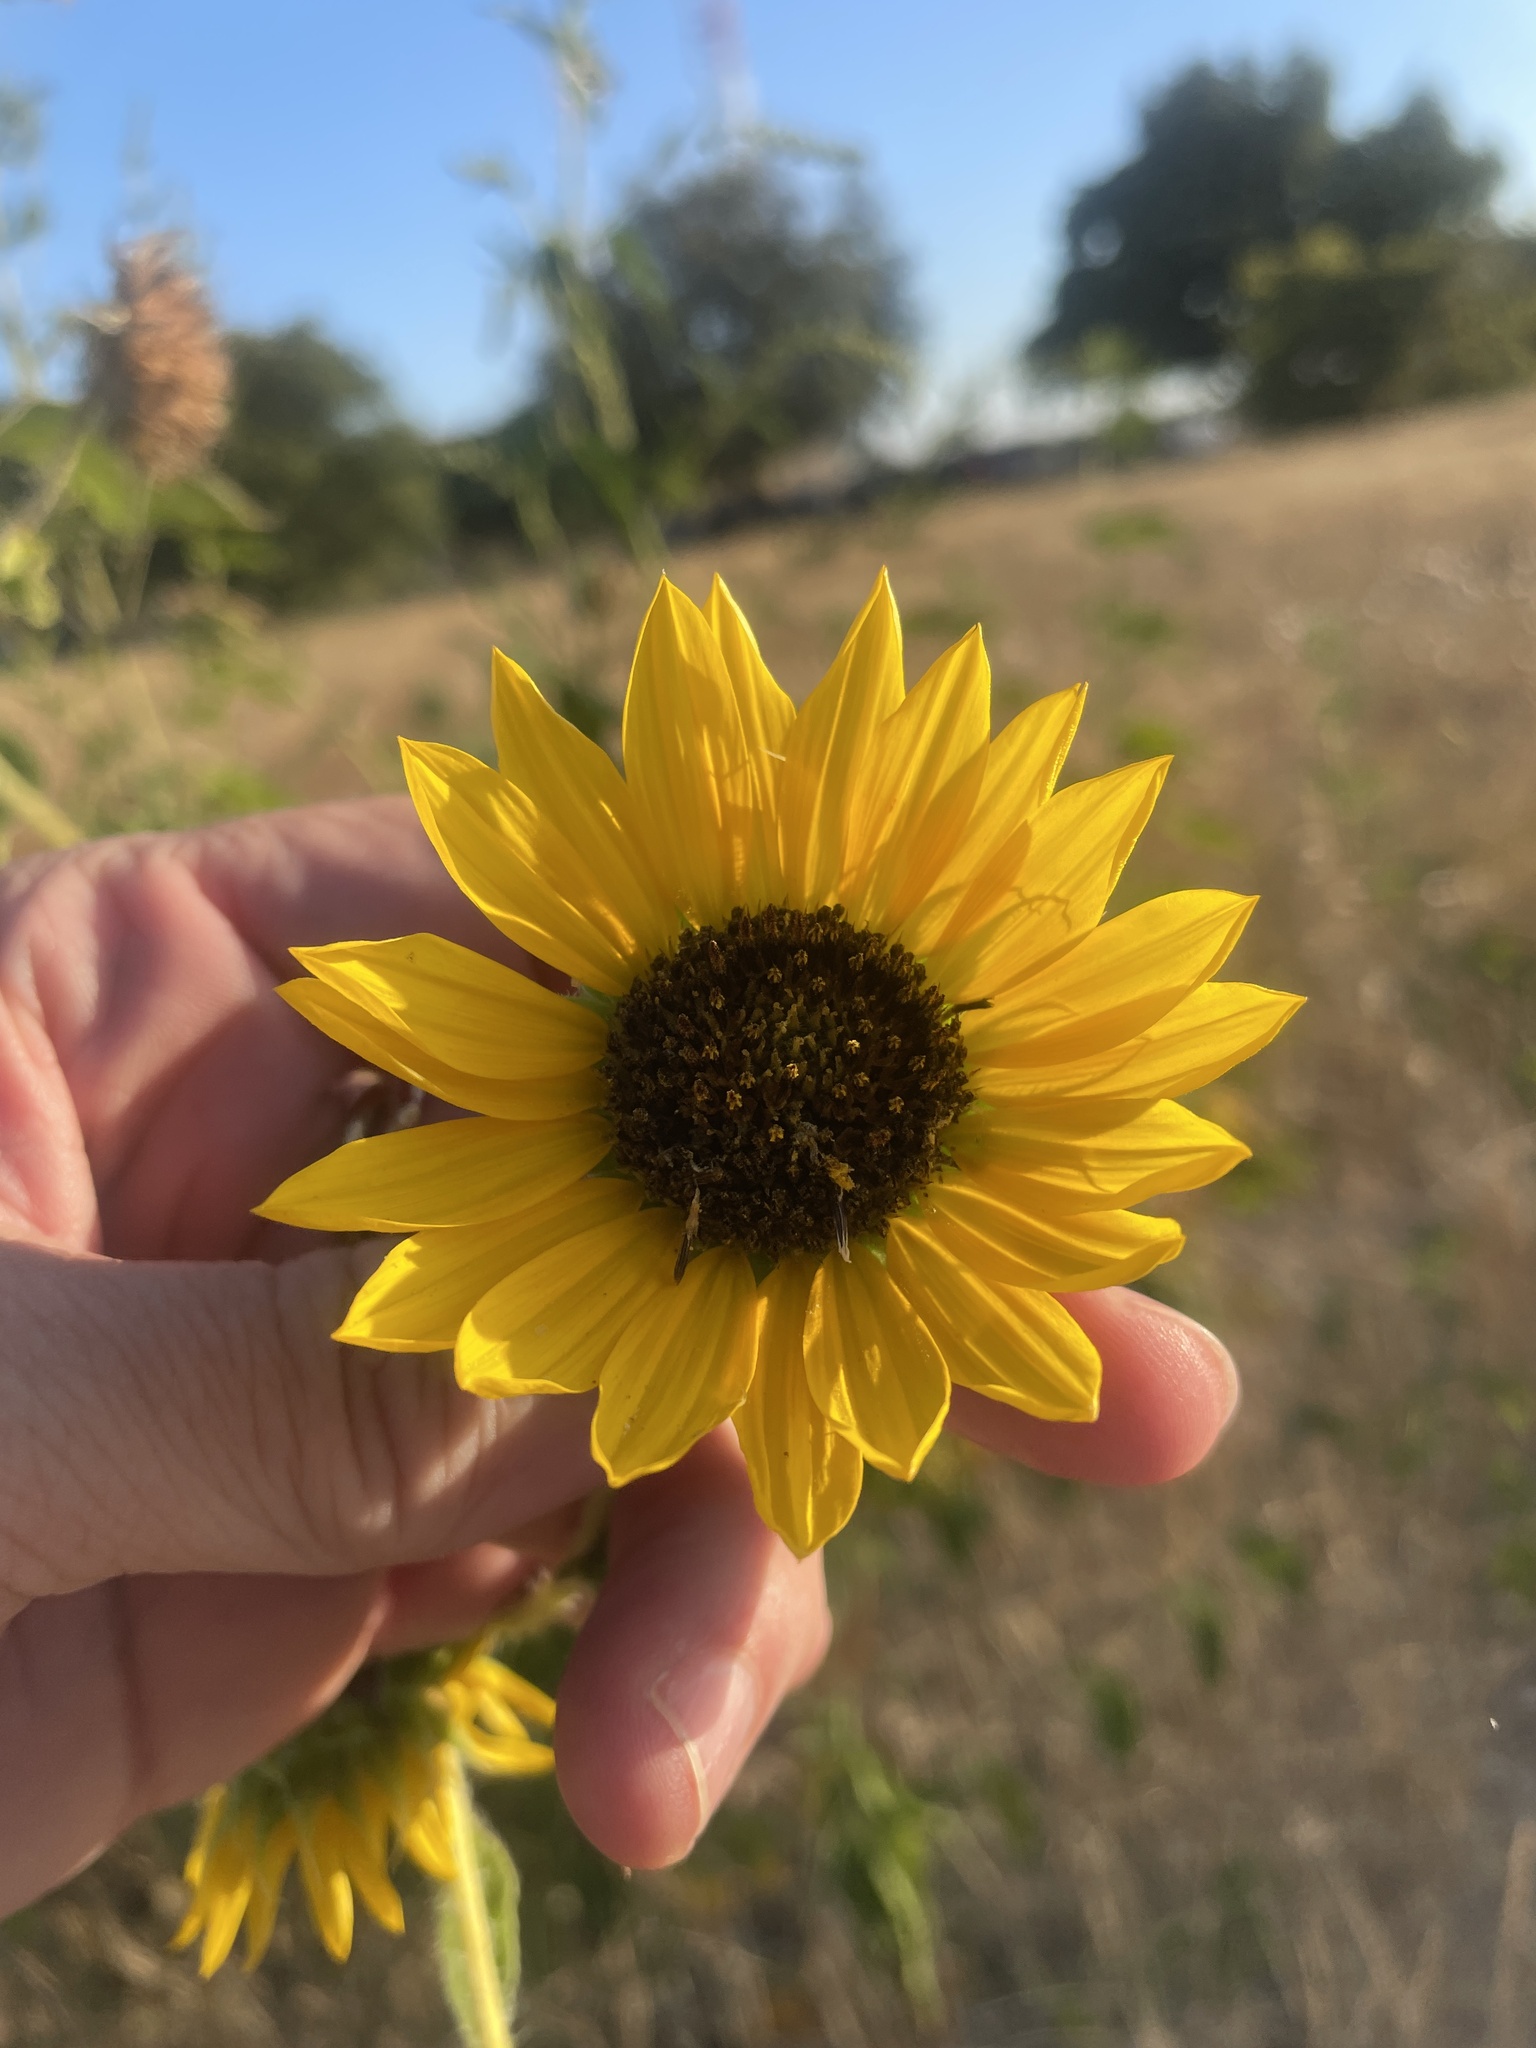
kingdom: Plantae
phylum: Tracheophyta
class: Magnoliopsida
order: Asterales
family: Asteraceae
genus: Helianthus
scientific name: Helianthus annuus
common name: Sunflower
